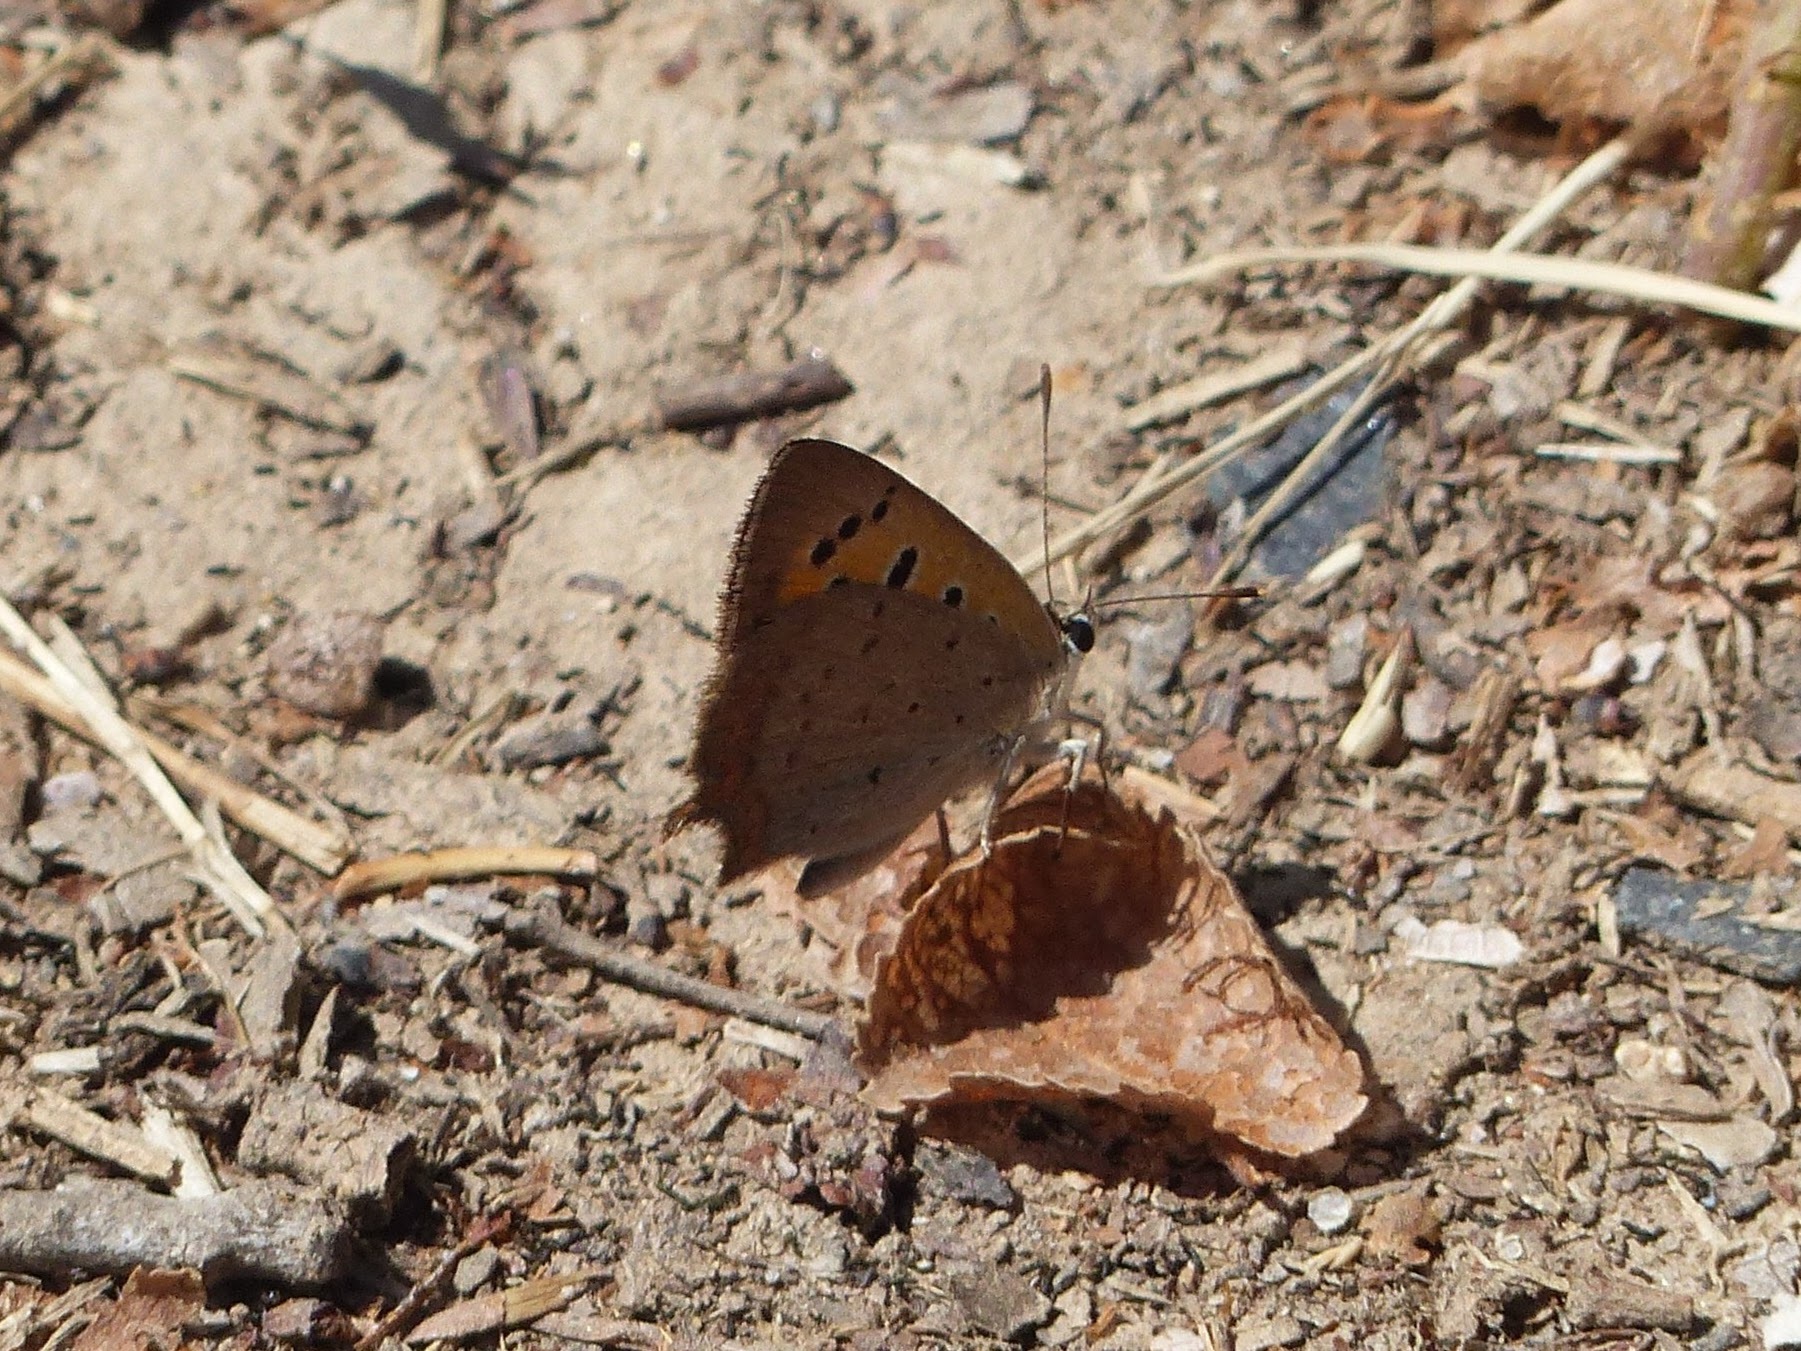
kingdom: Animalia
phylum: Arthropoda
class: Insecta
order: Lepidoptera
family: Lycaenidae
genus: Lycaena
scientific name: Lycaena phlaeas
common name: Small copper
